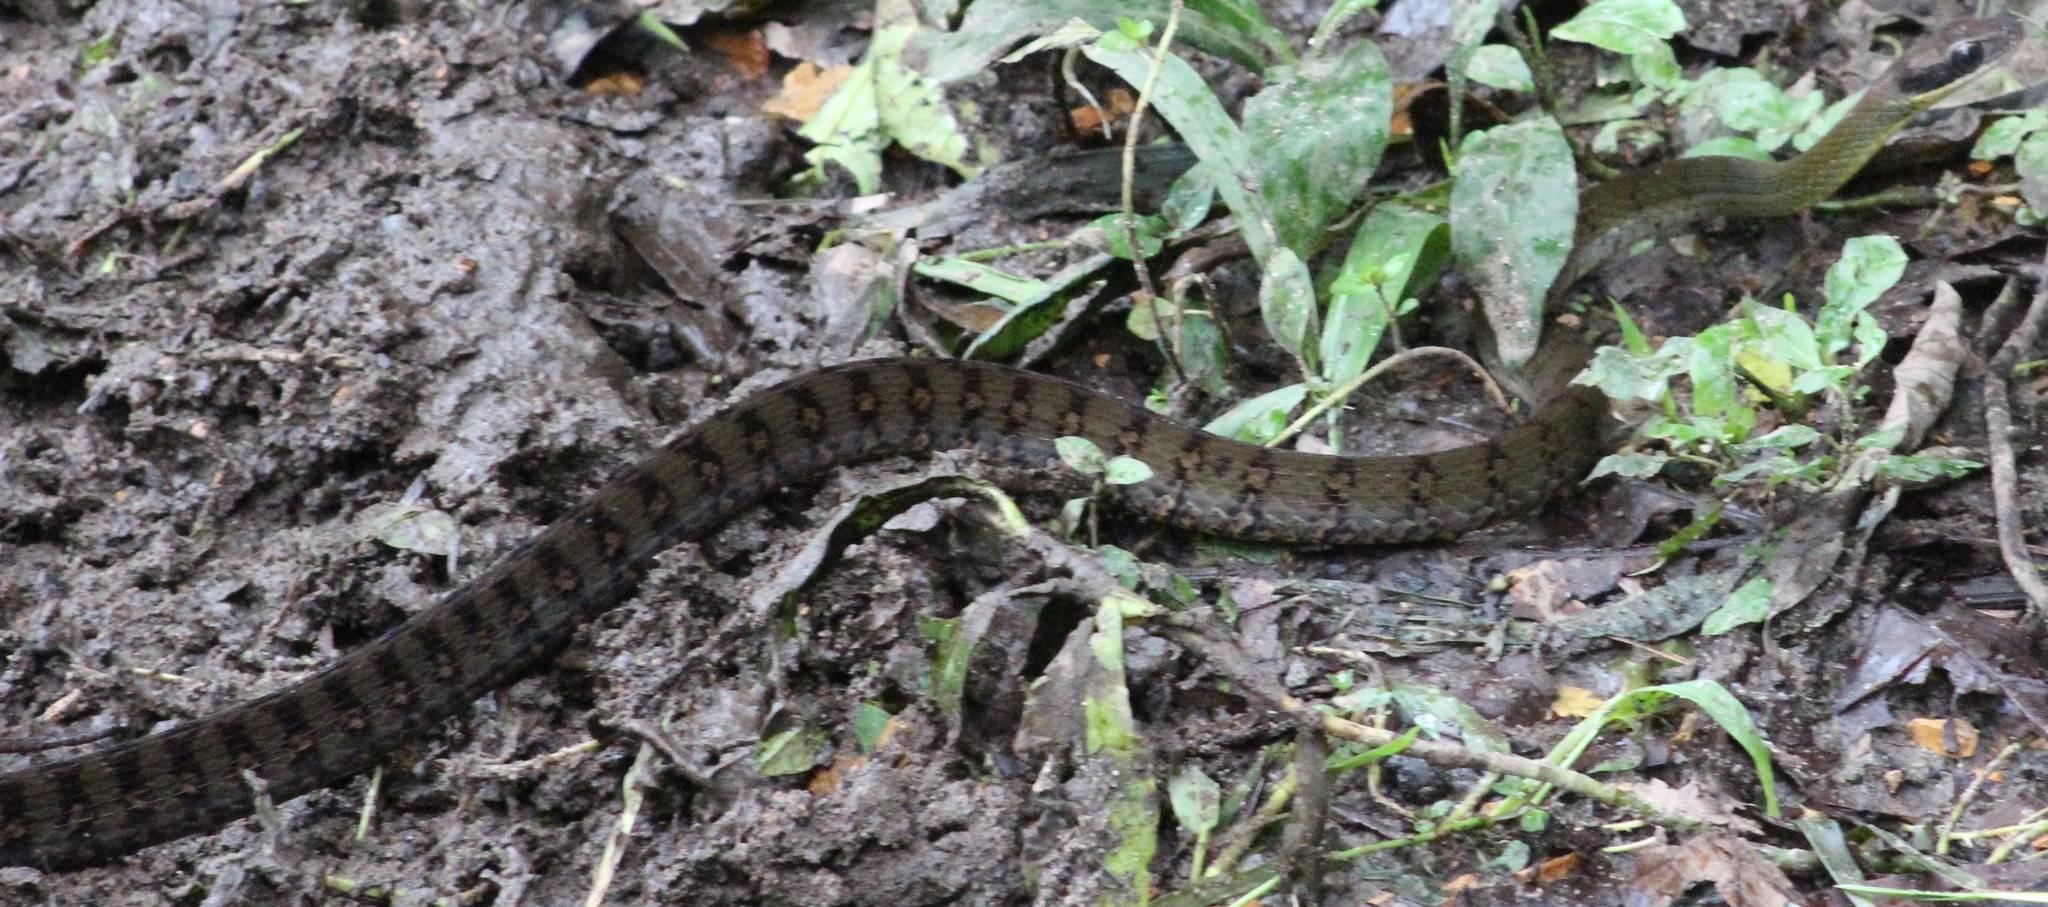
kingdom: Animalia
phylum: Chordata
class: Squamata
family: Colubridae
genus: Dendrophidion
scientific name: Dendrophidion clarkii
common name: Clark's forest racer
